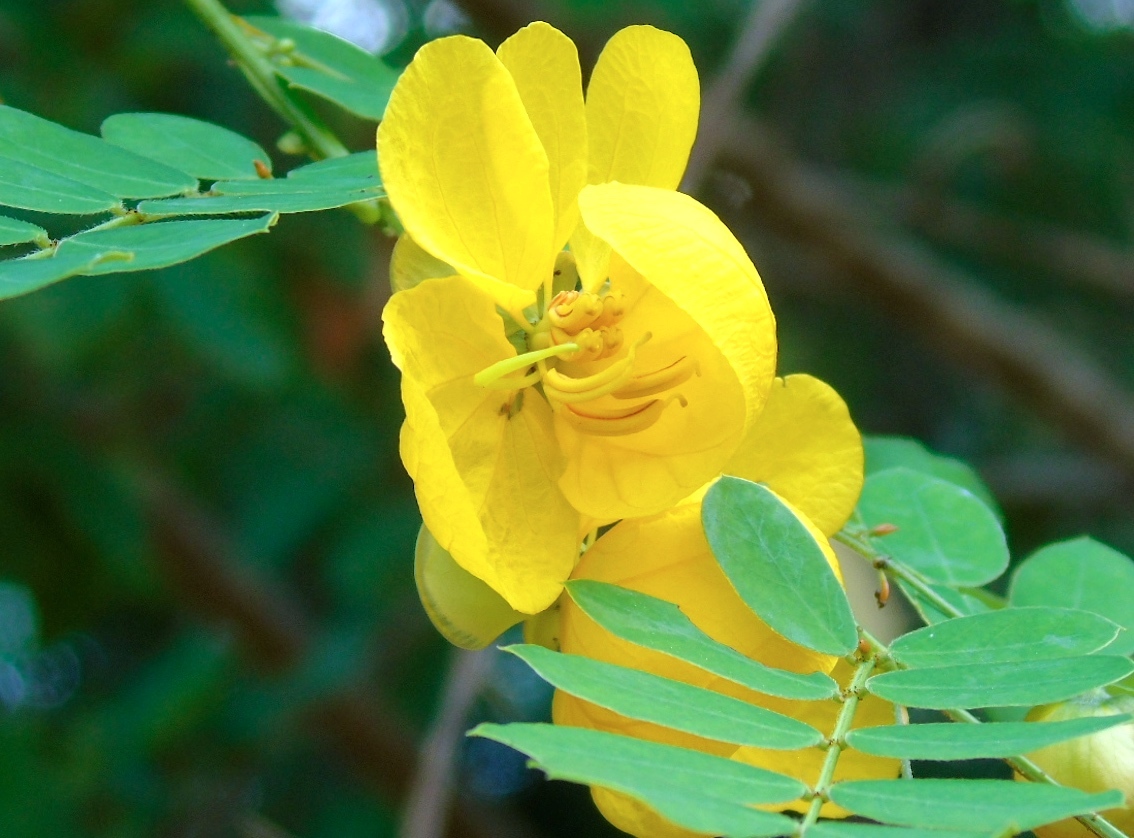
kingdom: Plantae
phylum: Tracheophyta
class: Magnoliopsida
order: Fabales
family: Fabaceae
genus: Senna
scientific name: Senna pallida
